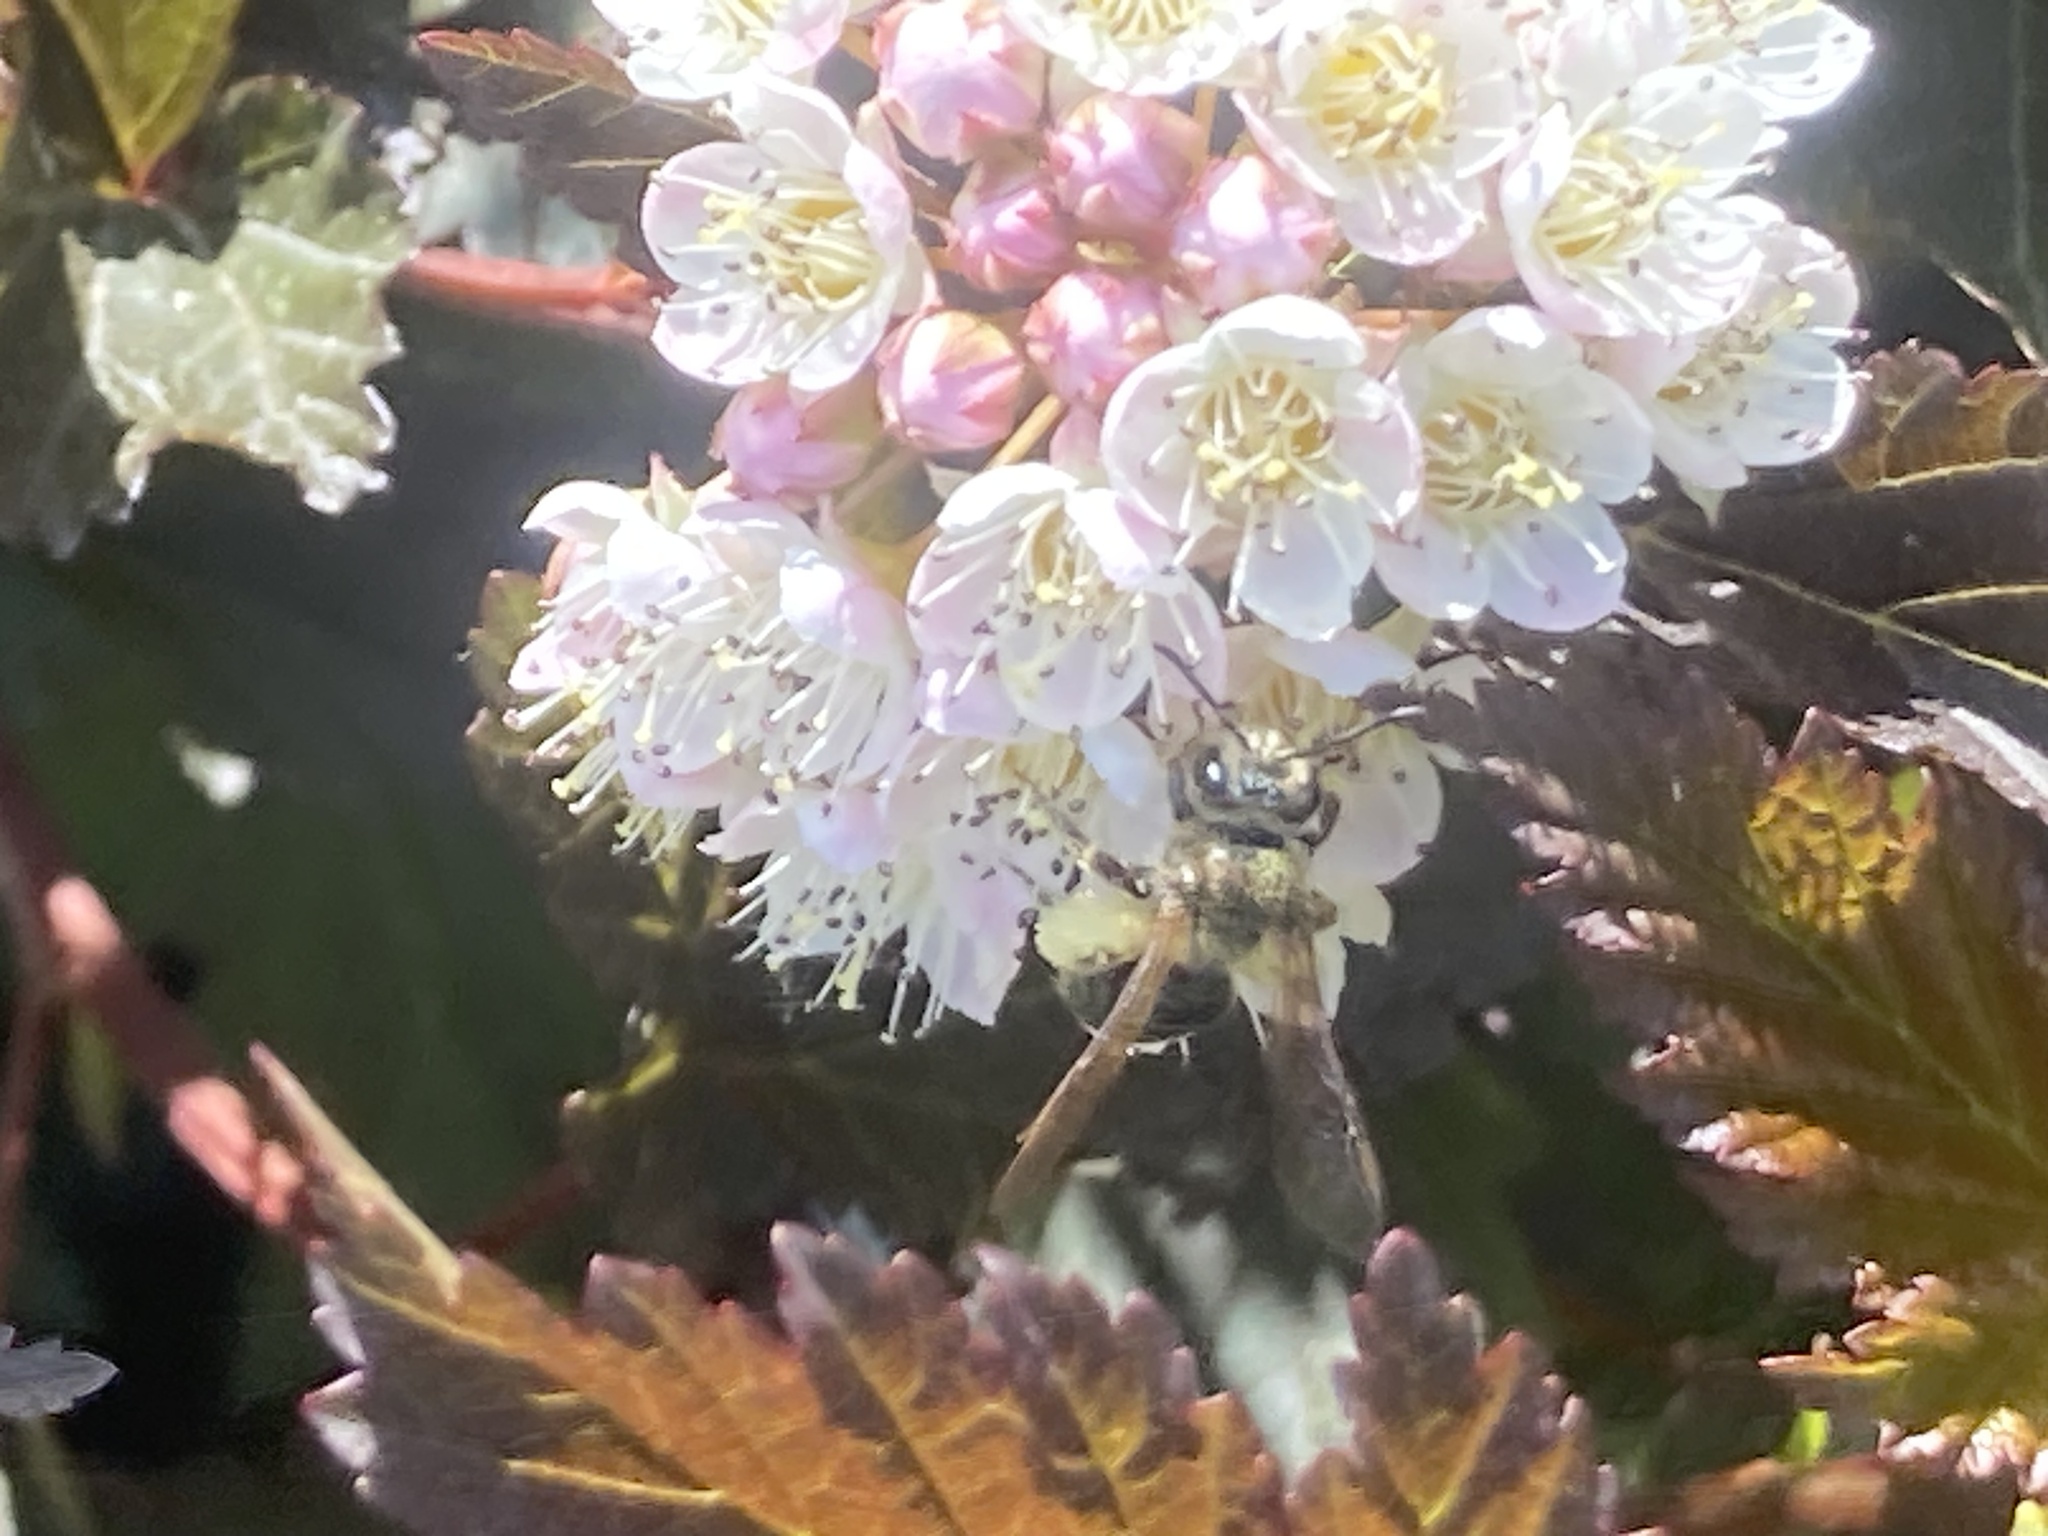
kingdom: Animalia
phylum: Arthropoda
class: Insecta
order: Hymenoptera
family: Andrenidae
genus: Andrena
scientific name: Andrena crataegi
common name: Hawthorn mining bee
